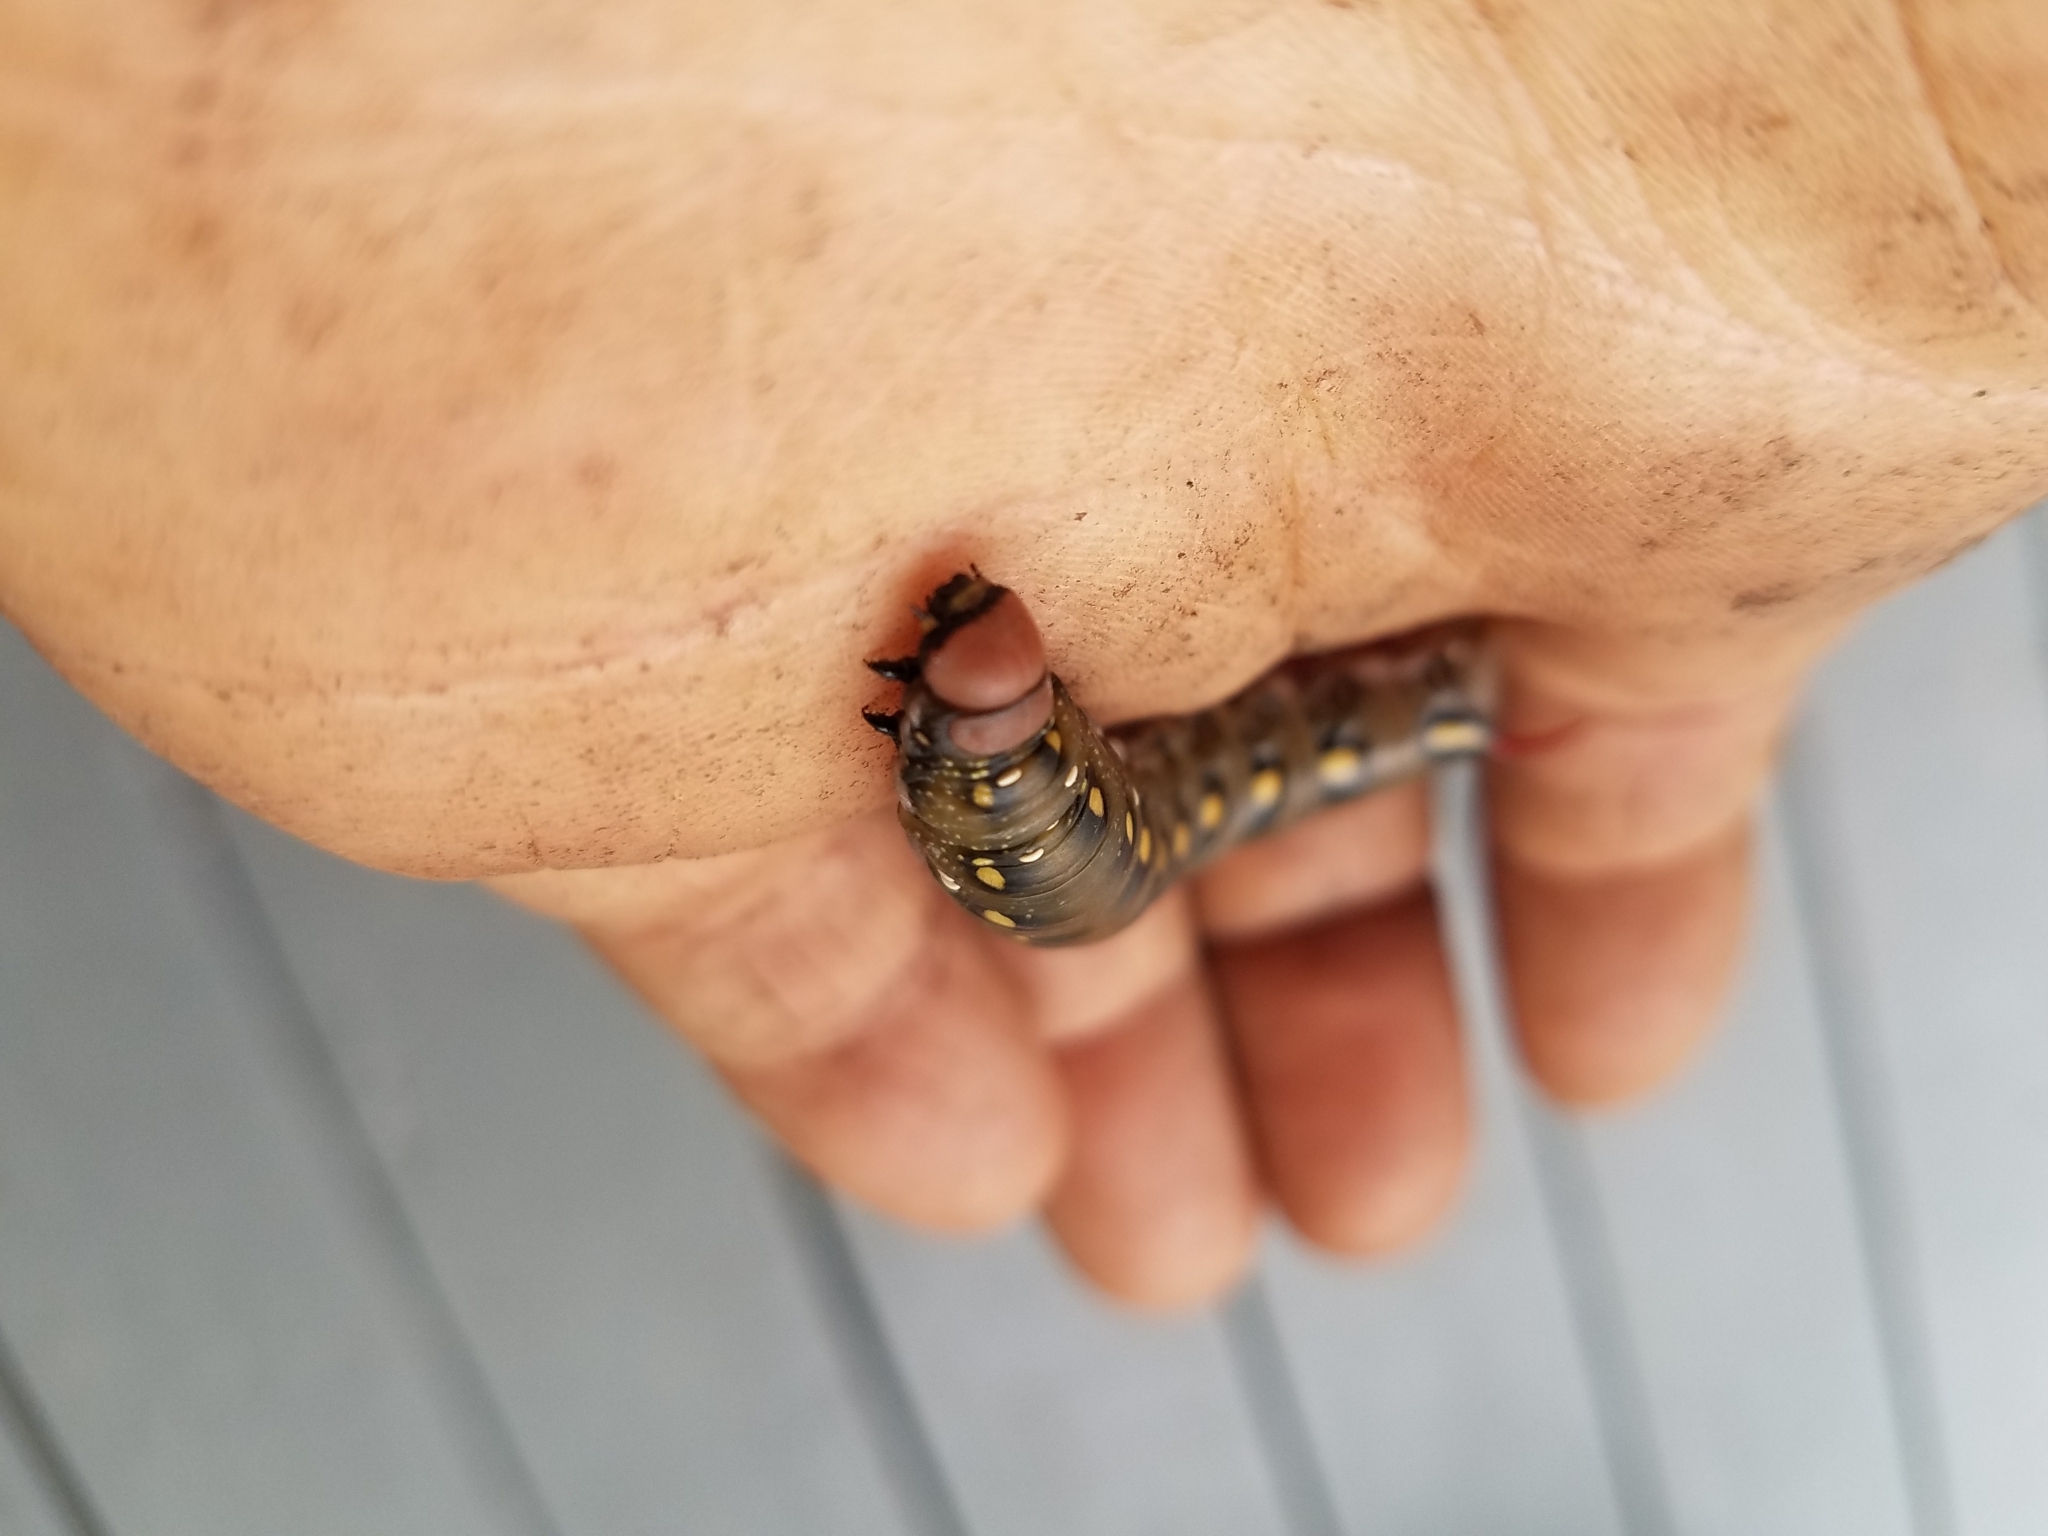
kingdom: Animalia
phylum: Arthropoda
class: Insecta
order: Lepidoptera
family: Sphingidae
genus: Hyles
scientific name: Hyles gallii
